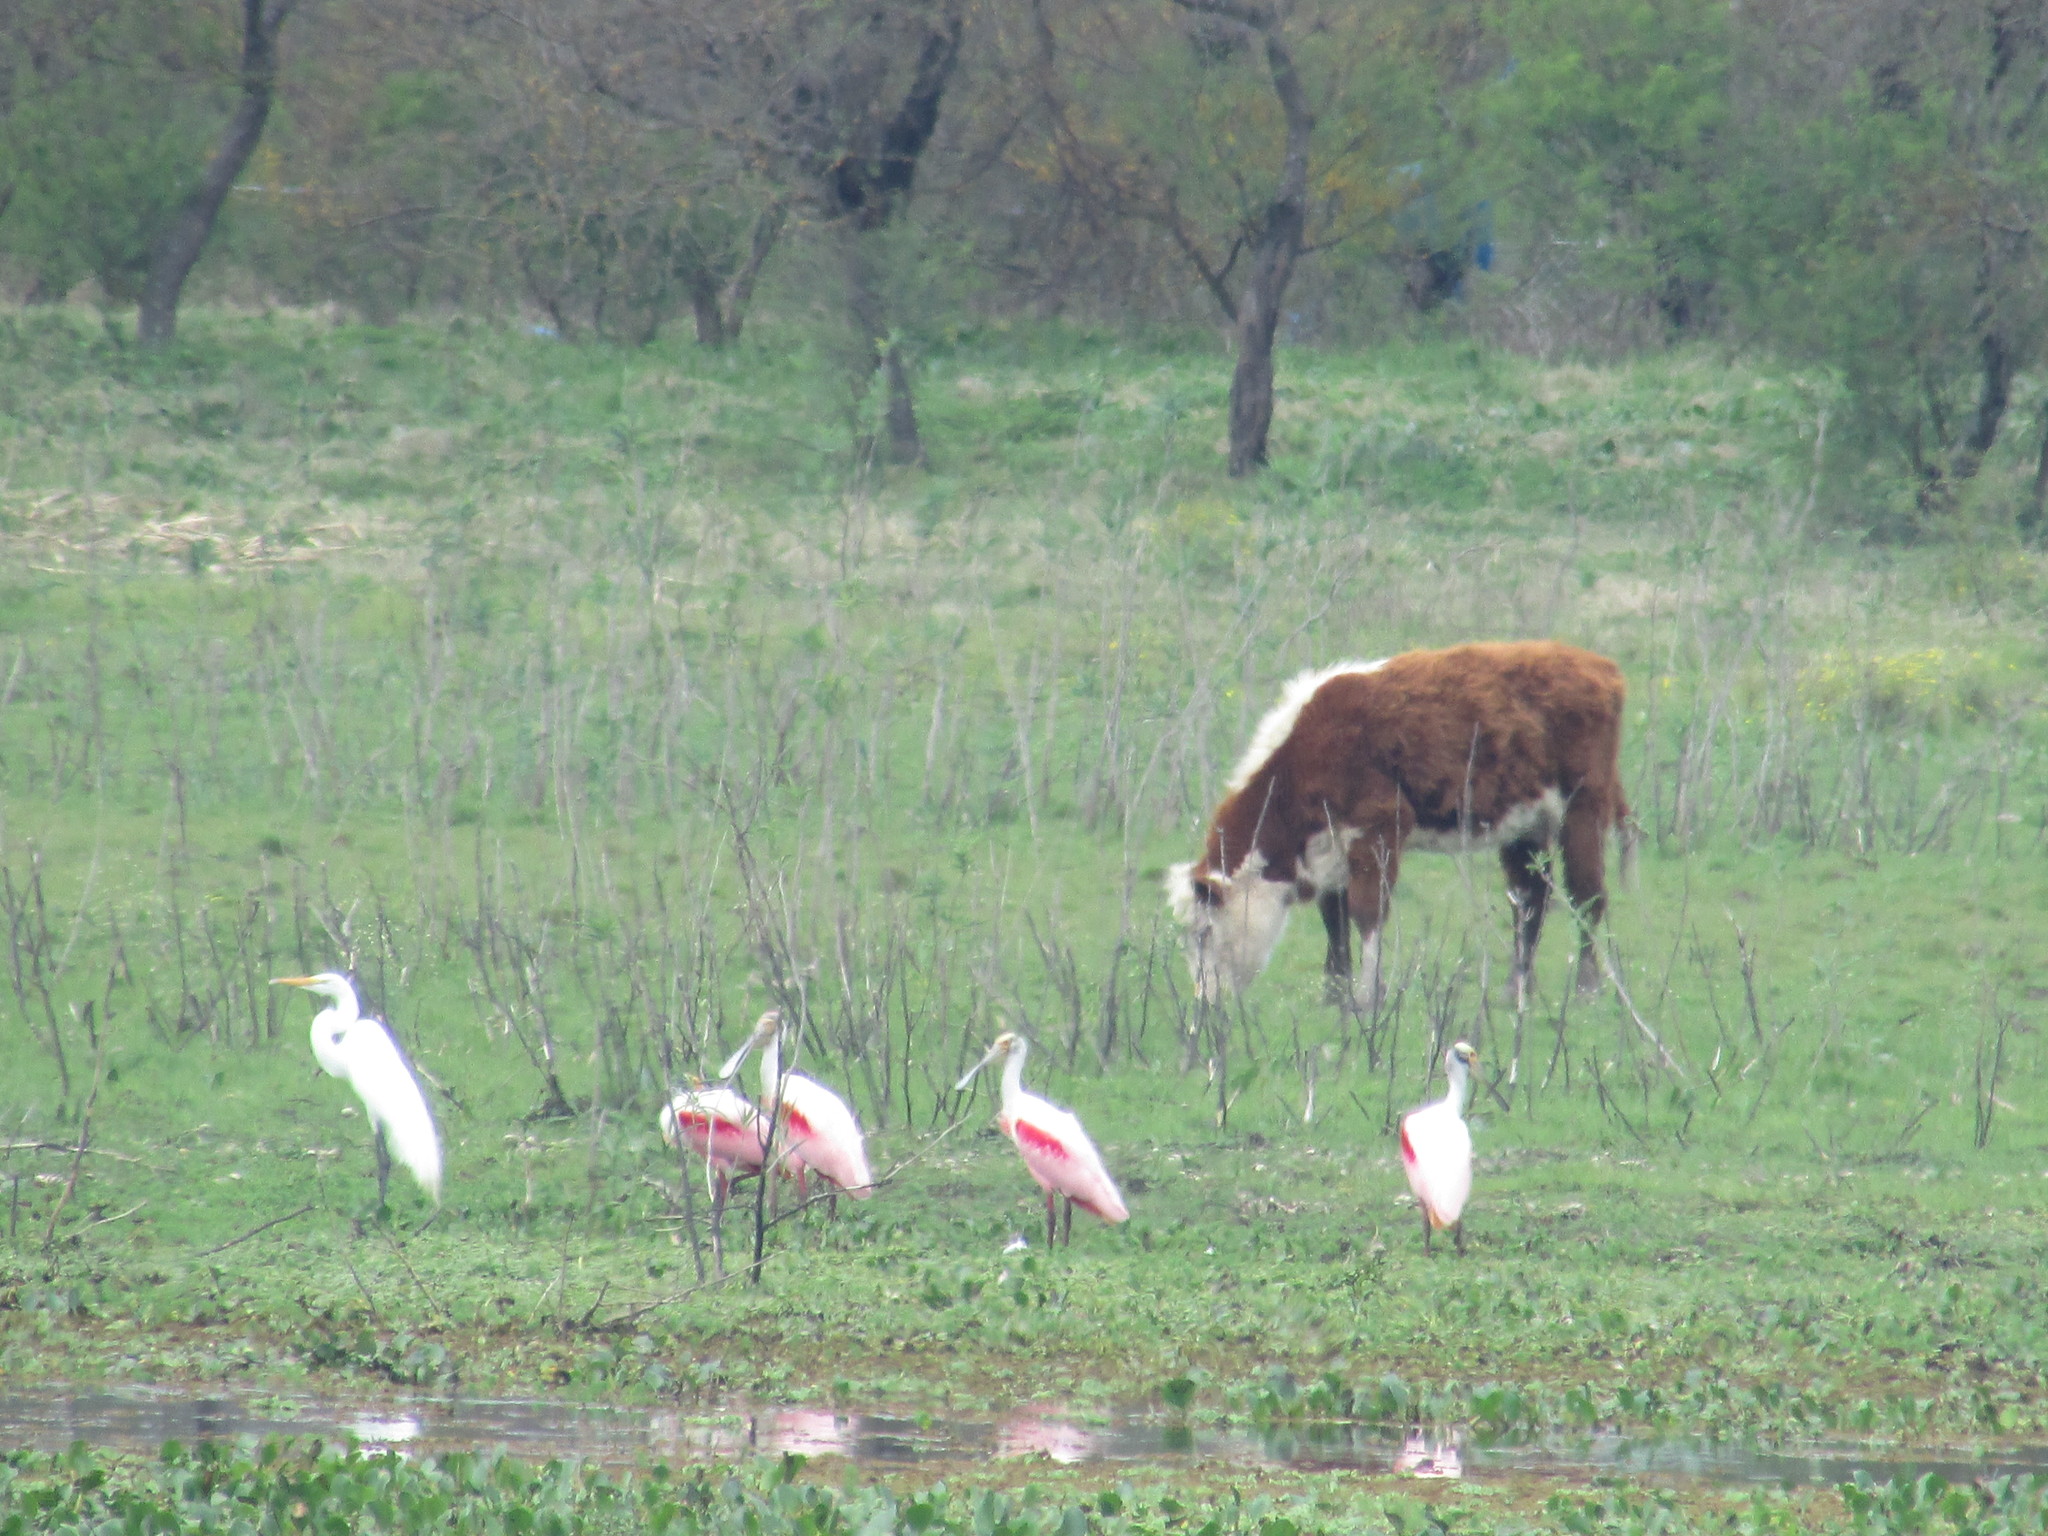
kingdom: Animalia
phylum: Chordata
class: Aves
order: Pelecaniformes
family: Threskiornithidae
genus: Platalea
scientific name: Platalea ajaja
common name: Roseate spoonbill
